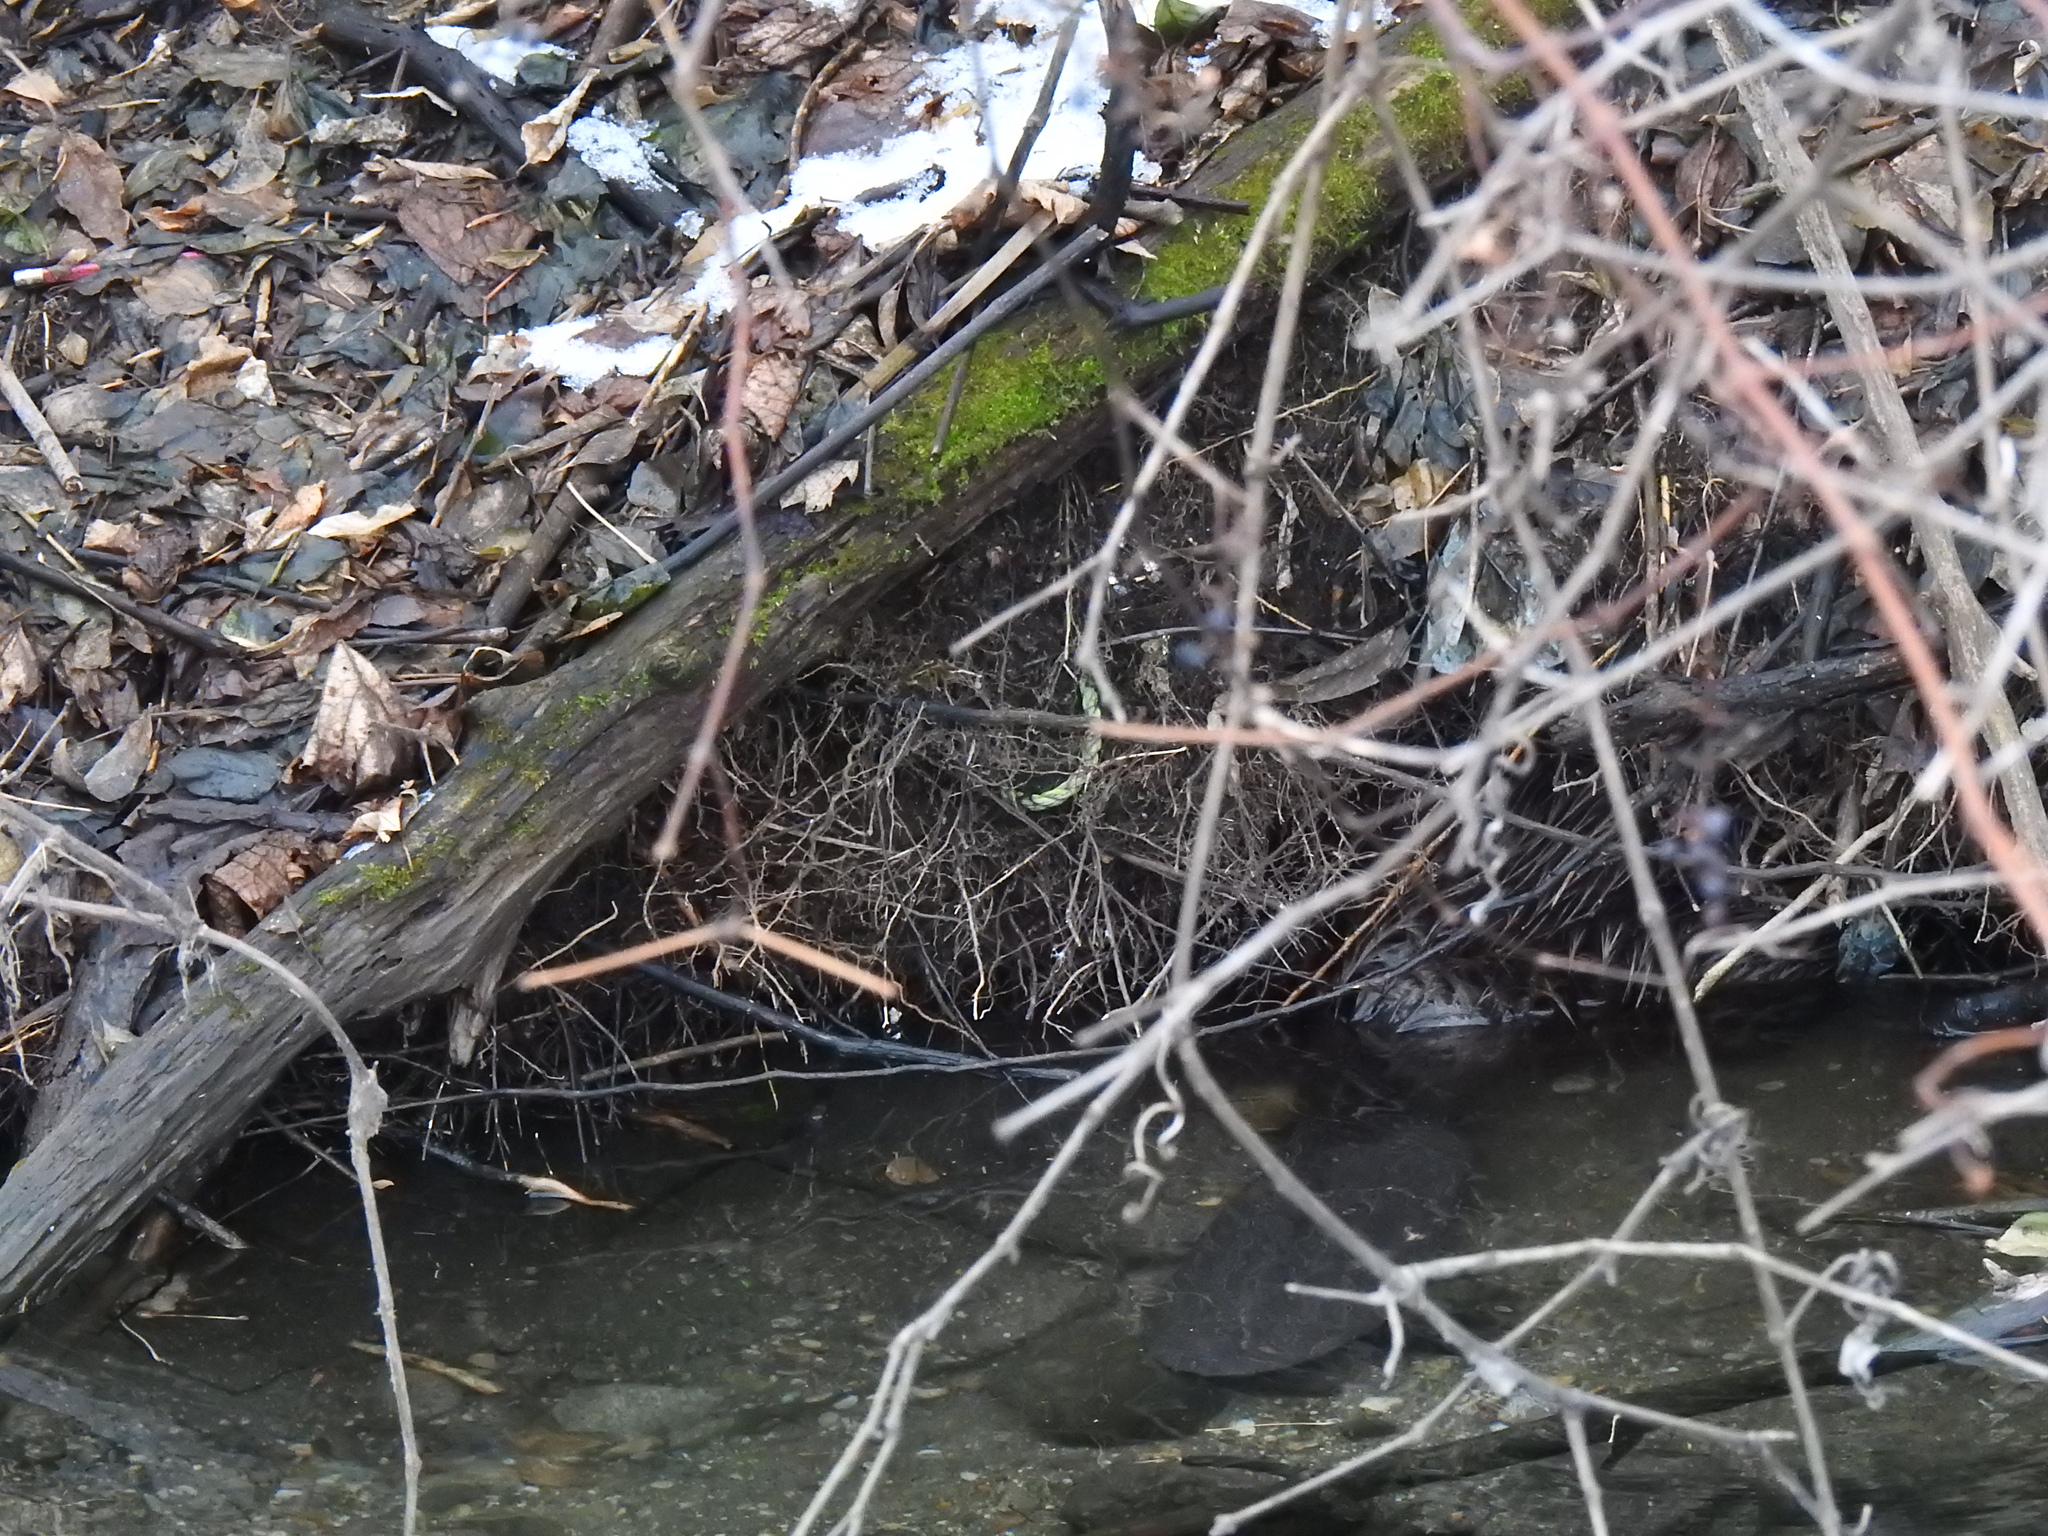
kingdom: Animalia
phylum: Chordata
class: Mammalia
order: Rodentia
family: Castoridae
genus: Castor
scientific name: Castor canadensis
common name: American beaver
